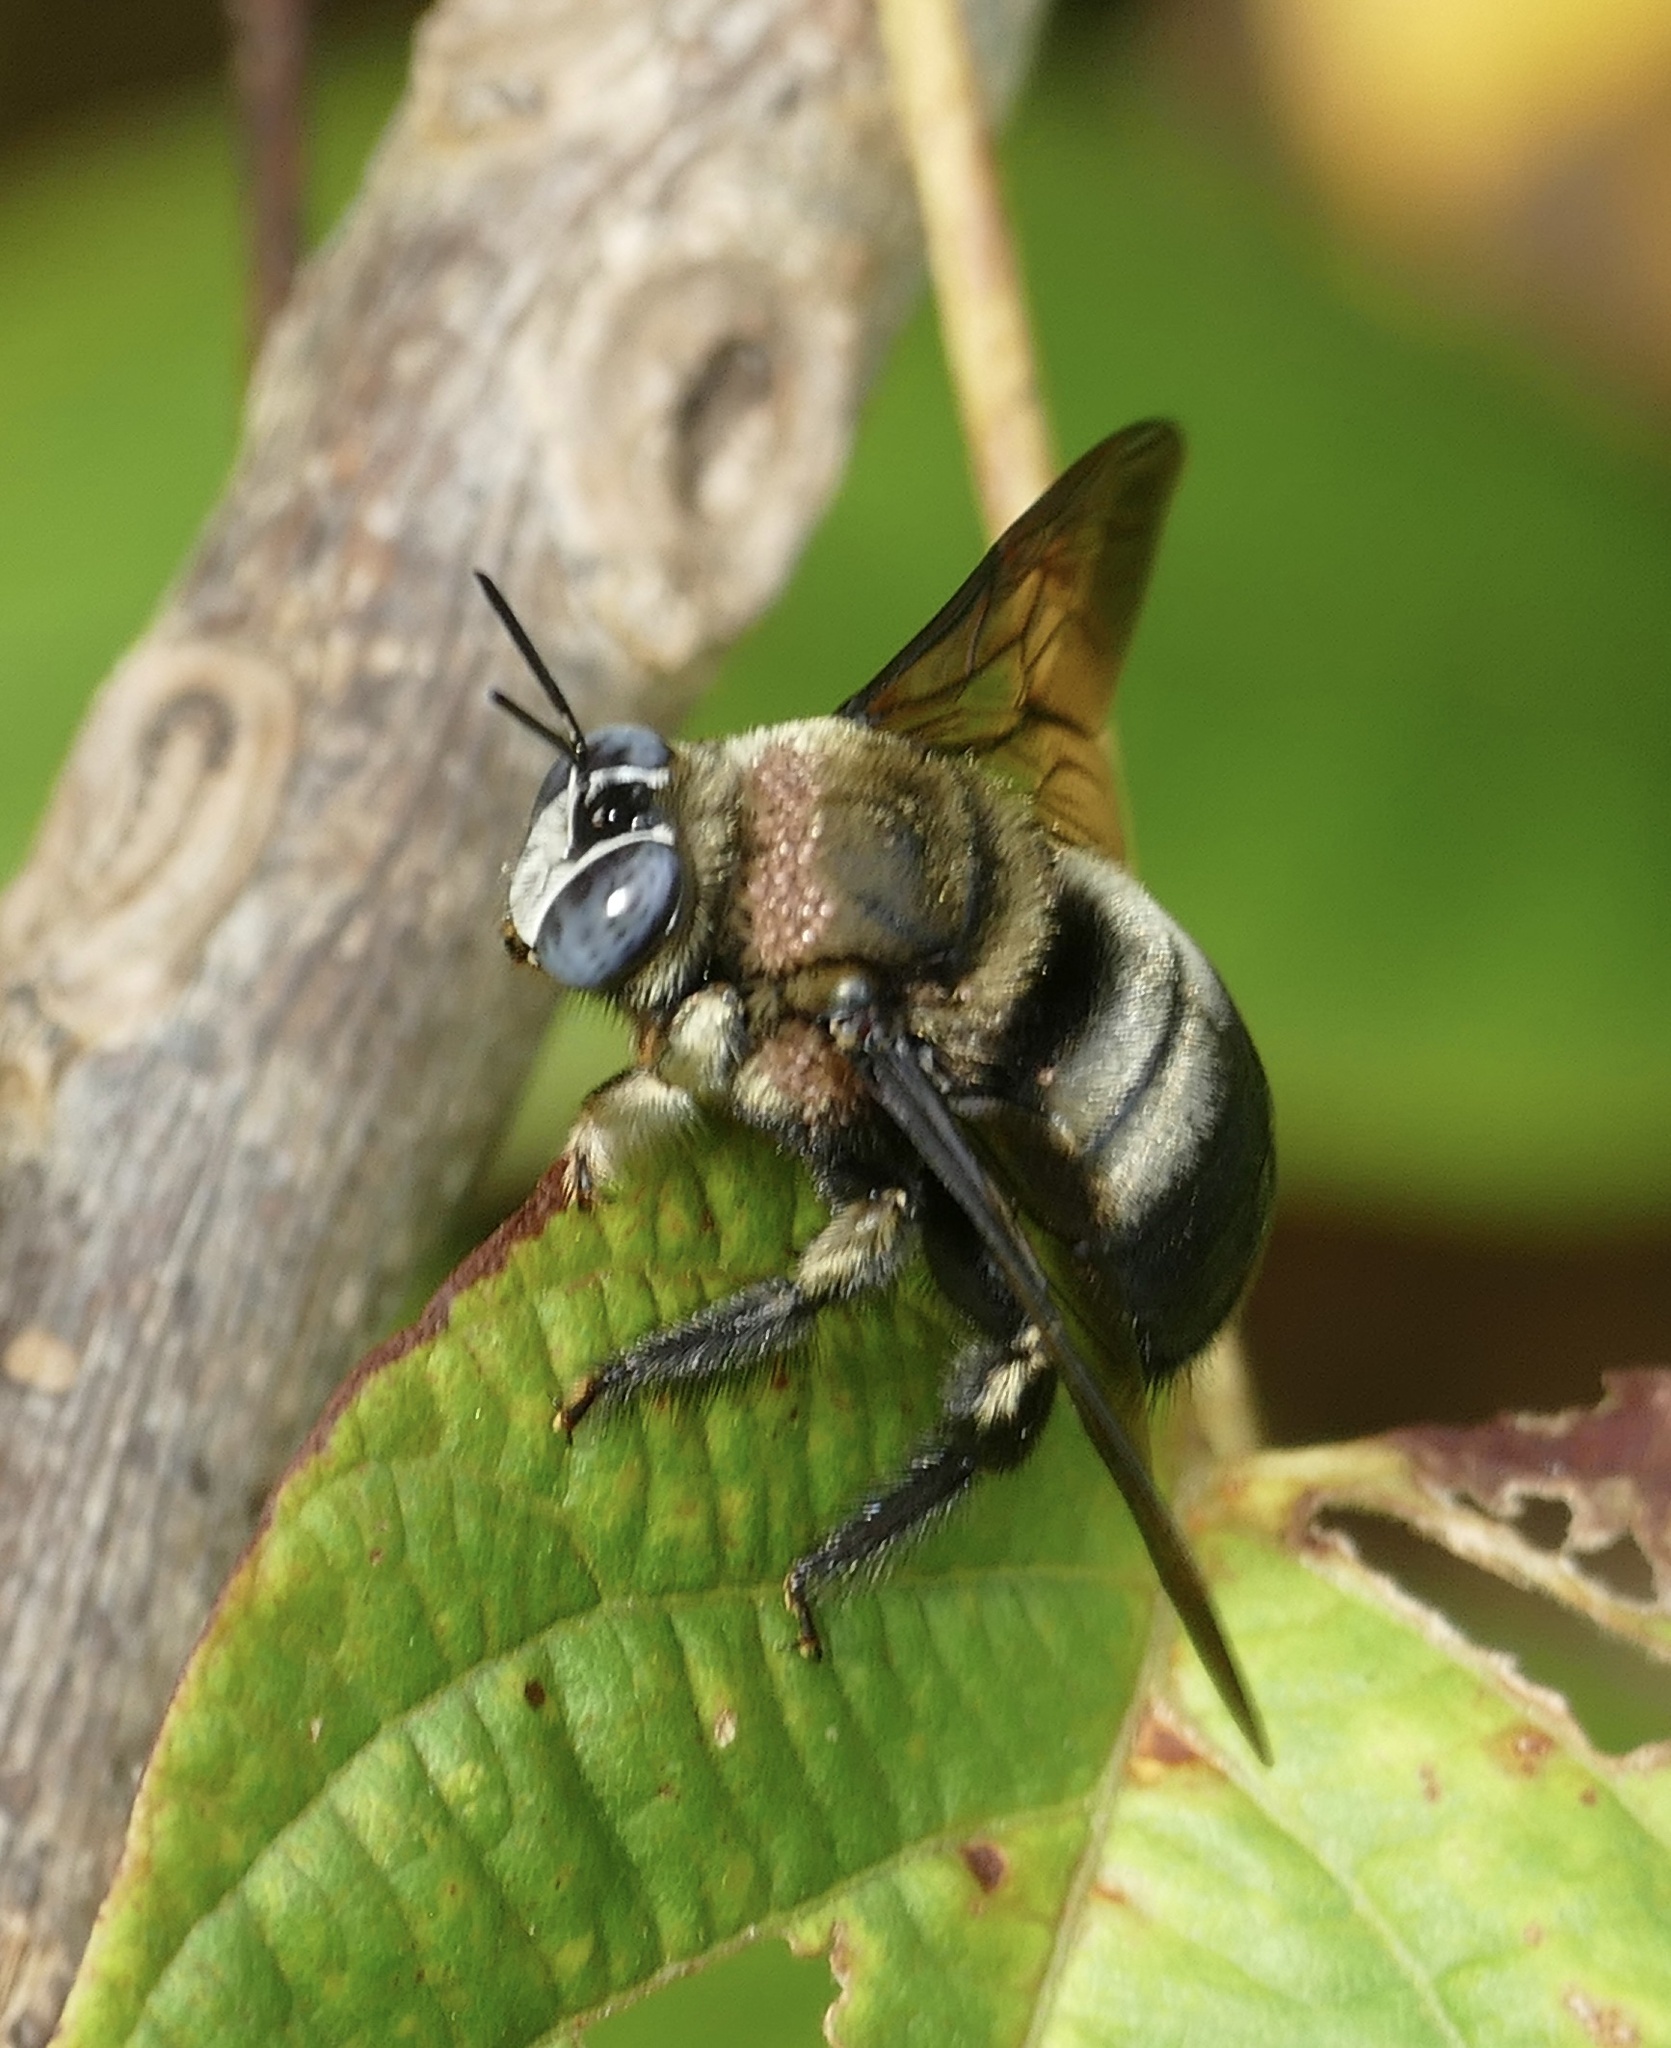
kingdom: Animalia
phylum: Arthropoda
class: Insecta
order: Hymenoptera
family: Apidae
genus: Xylocopa
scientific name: Xylocopa dejeanii
